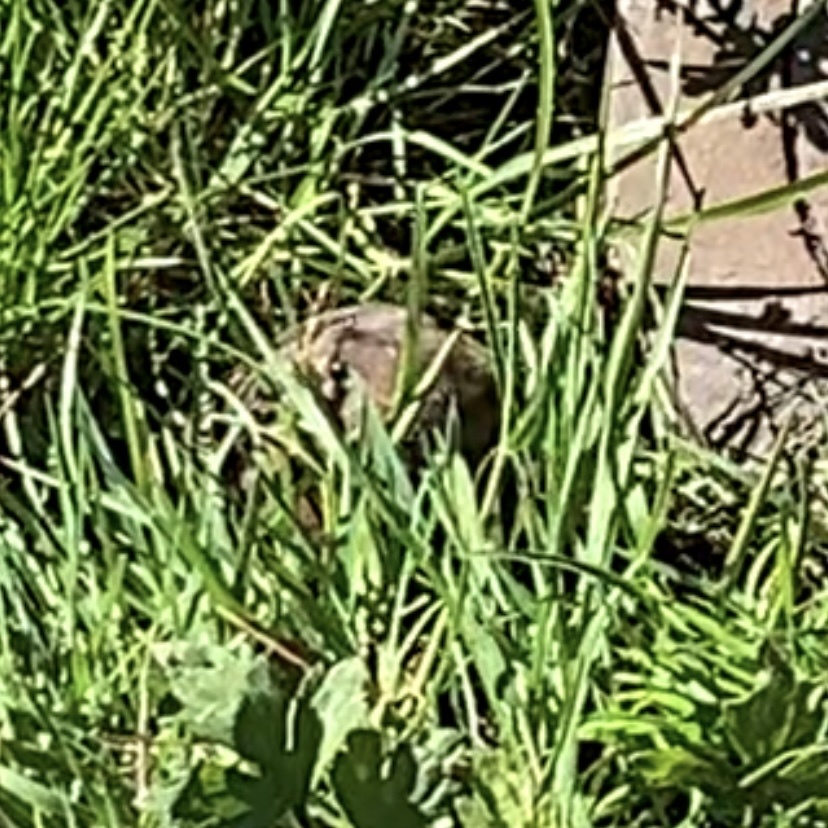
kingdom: Animalia
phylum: Chordata
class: Mammalia
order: Rodentia
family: Geomyidae
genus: Thomomys
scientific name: Thomomys bottae
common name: Botta's pocket gopher
